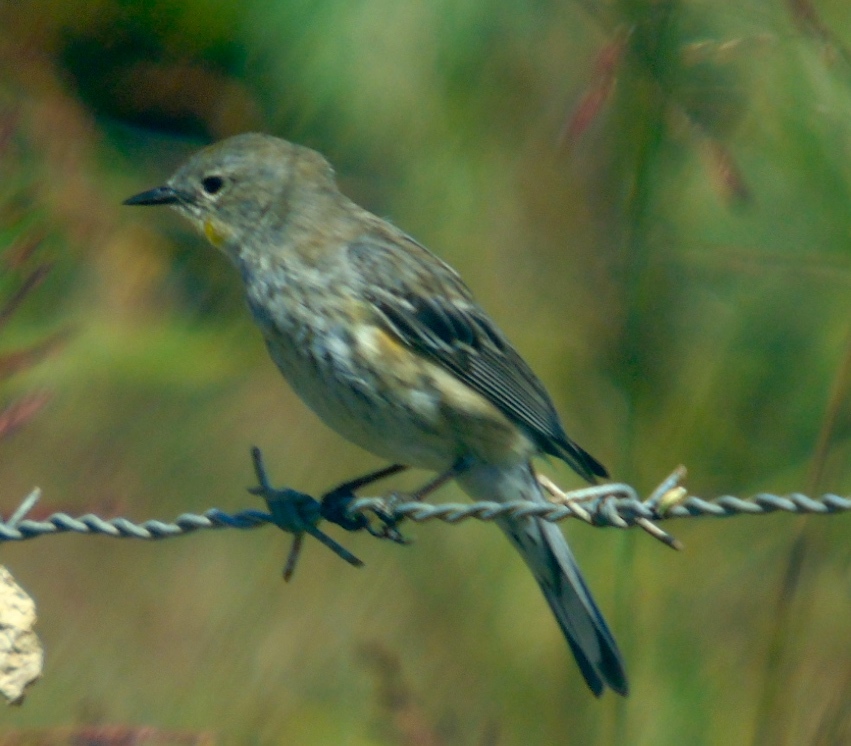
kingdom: Animalia
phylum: Chordata
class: Aves
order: Passeriformes
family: Parulidae
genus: Setophaga
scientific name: Setophaga coronata
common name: Myrtle warbler
